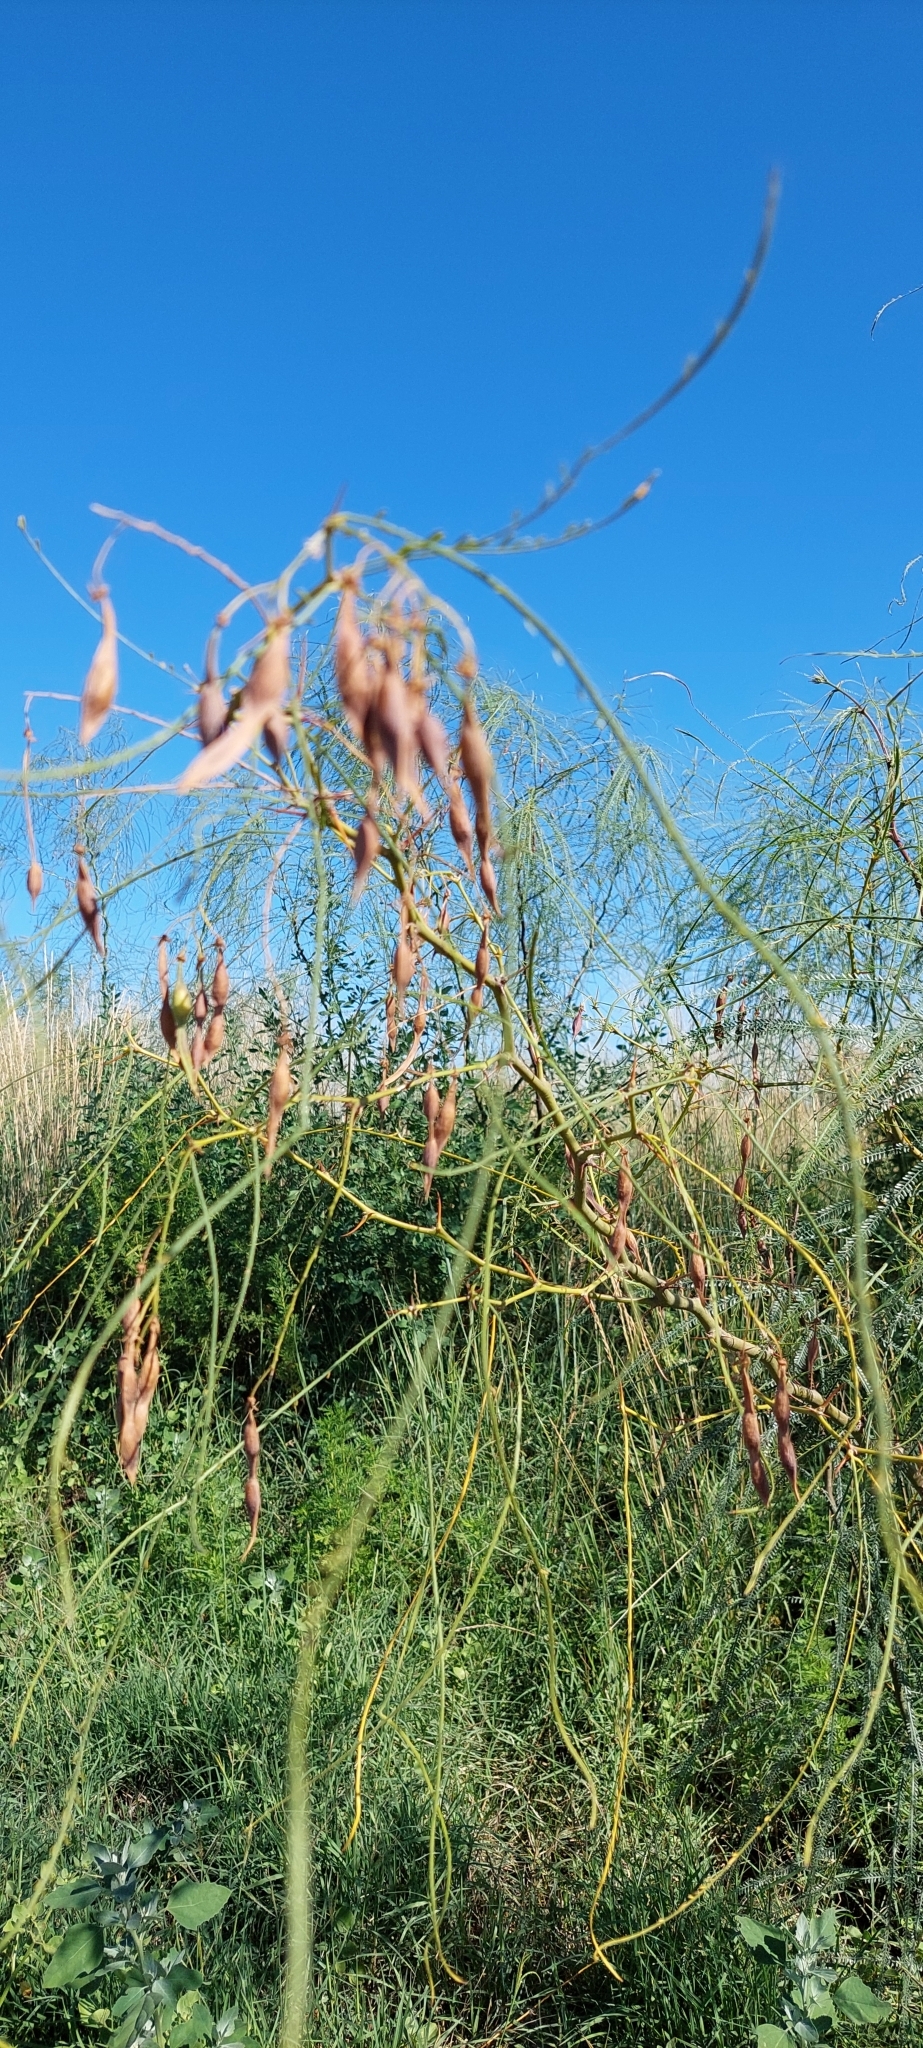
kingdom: Plantae
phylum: Tracheophyta
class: Magnoliopsida
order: Fabales
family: Fabaceae
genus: Parkinsonia
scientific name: Parkinsonia aculeata
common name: Jerusalem thorn
